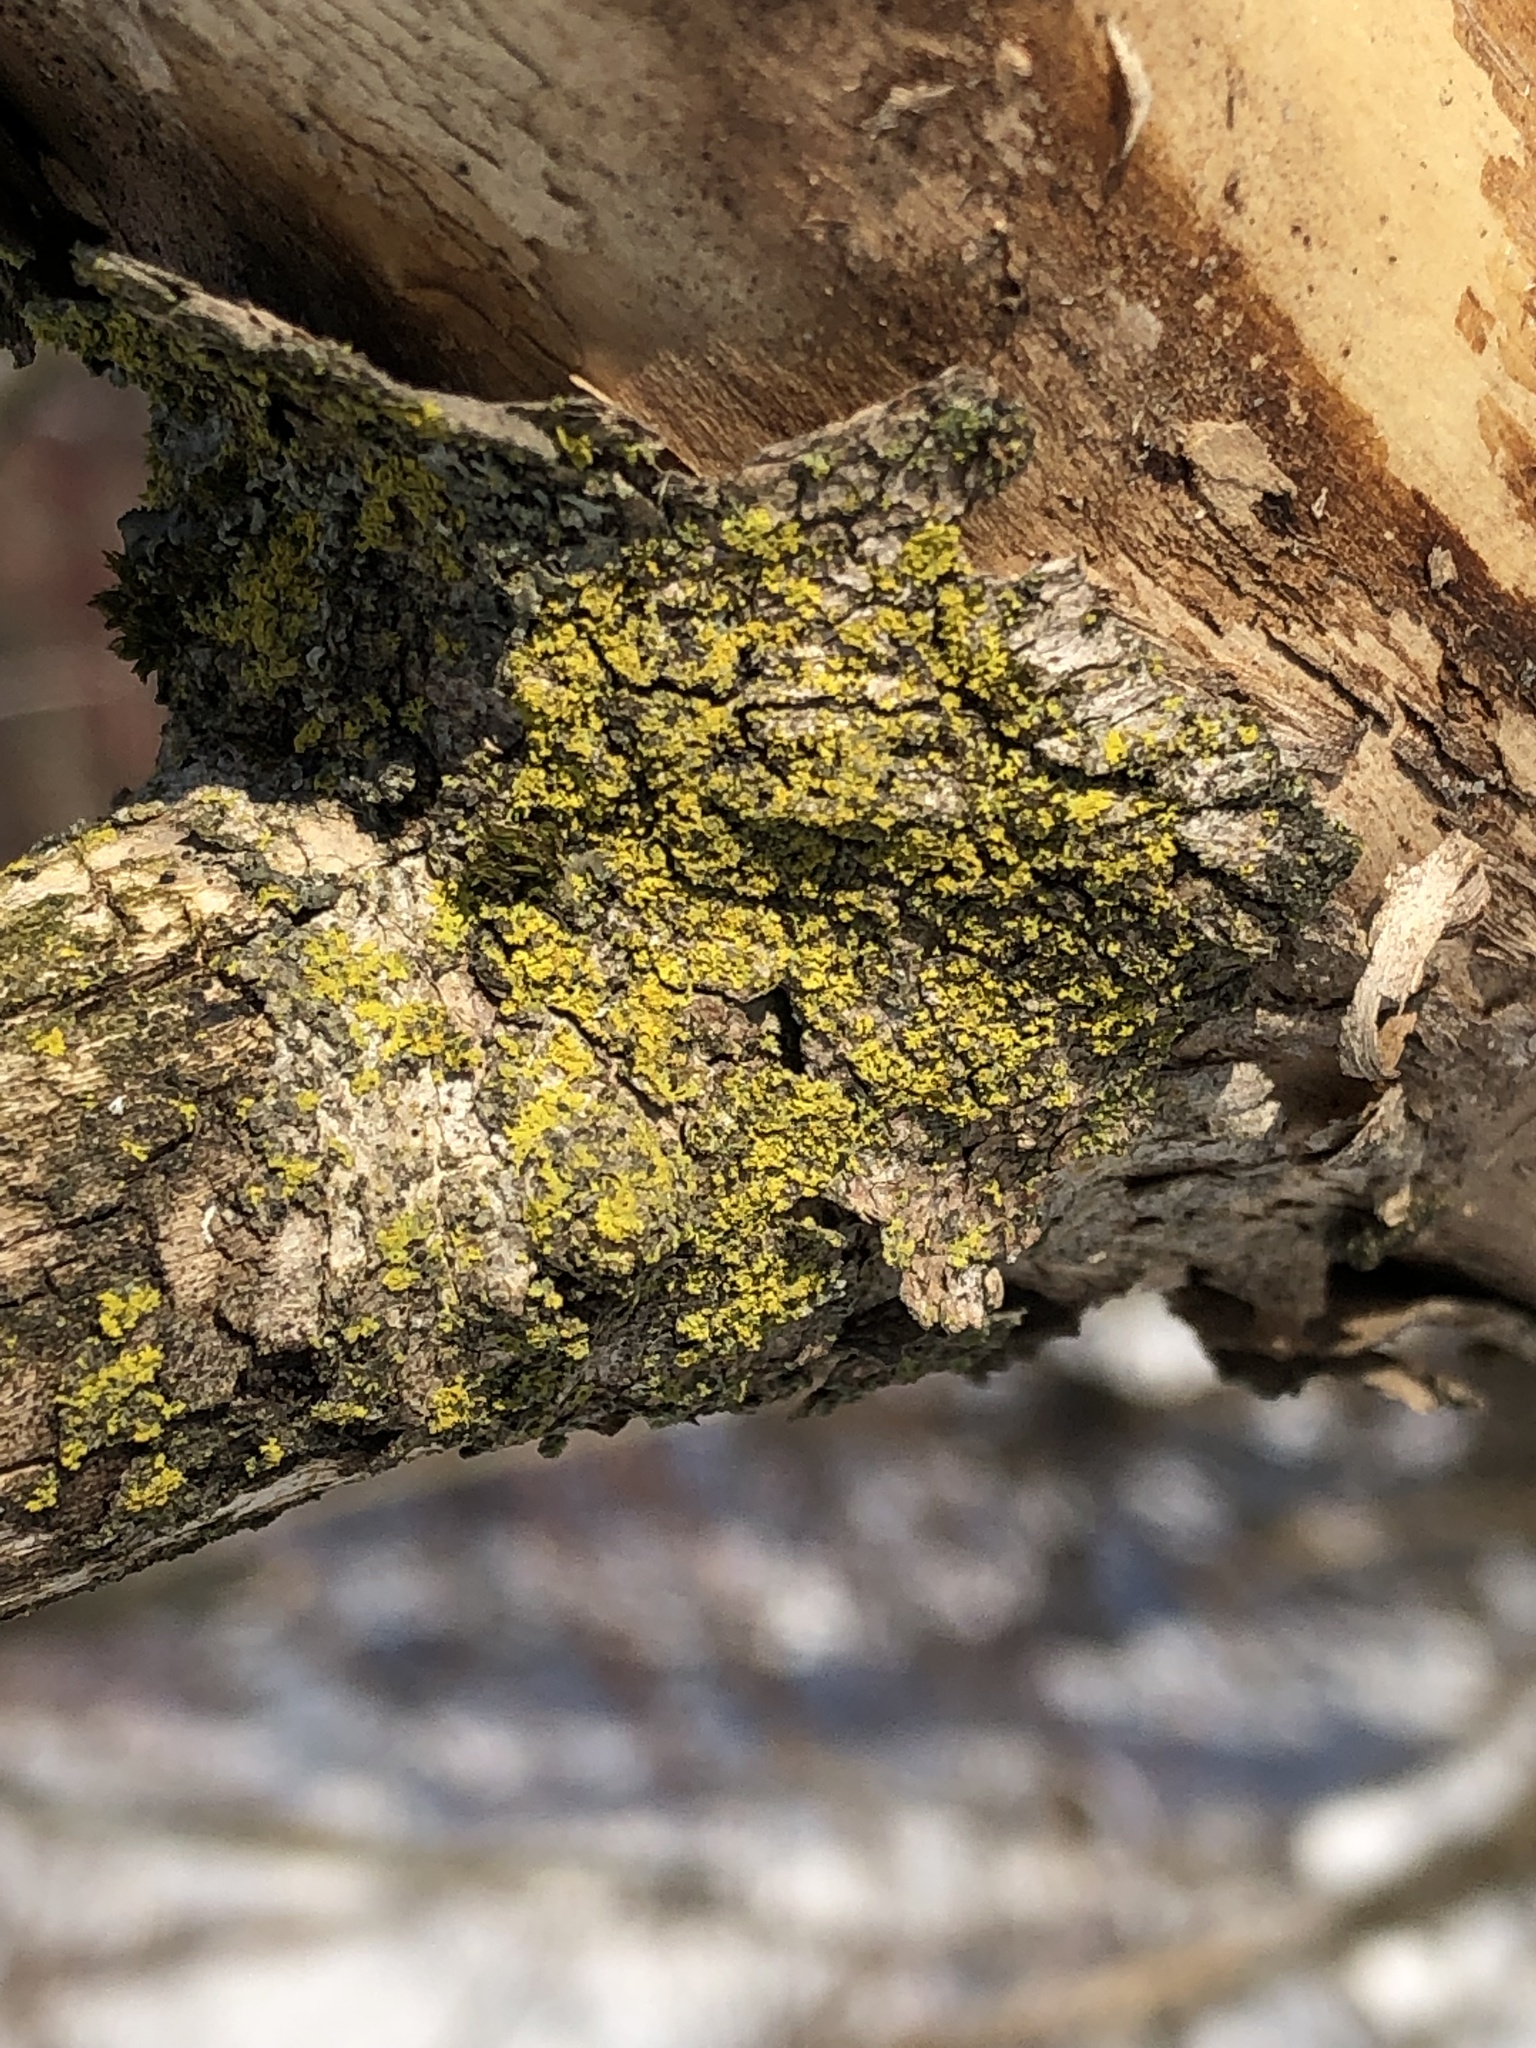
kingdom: Fungi
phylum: Ascomycota
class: Candelariomycetes
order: Candelariales
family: Candelariaceae
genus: Candelaria
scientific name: Candelaria concolor
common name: Candleflame lichen
